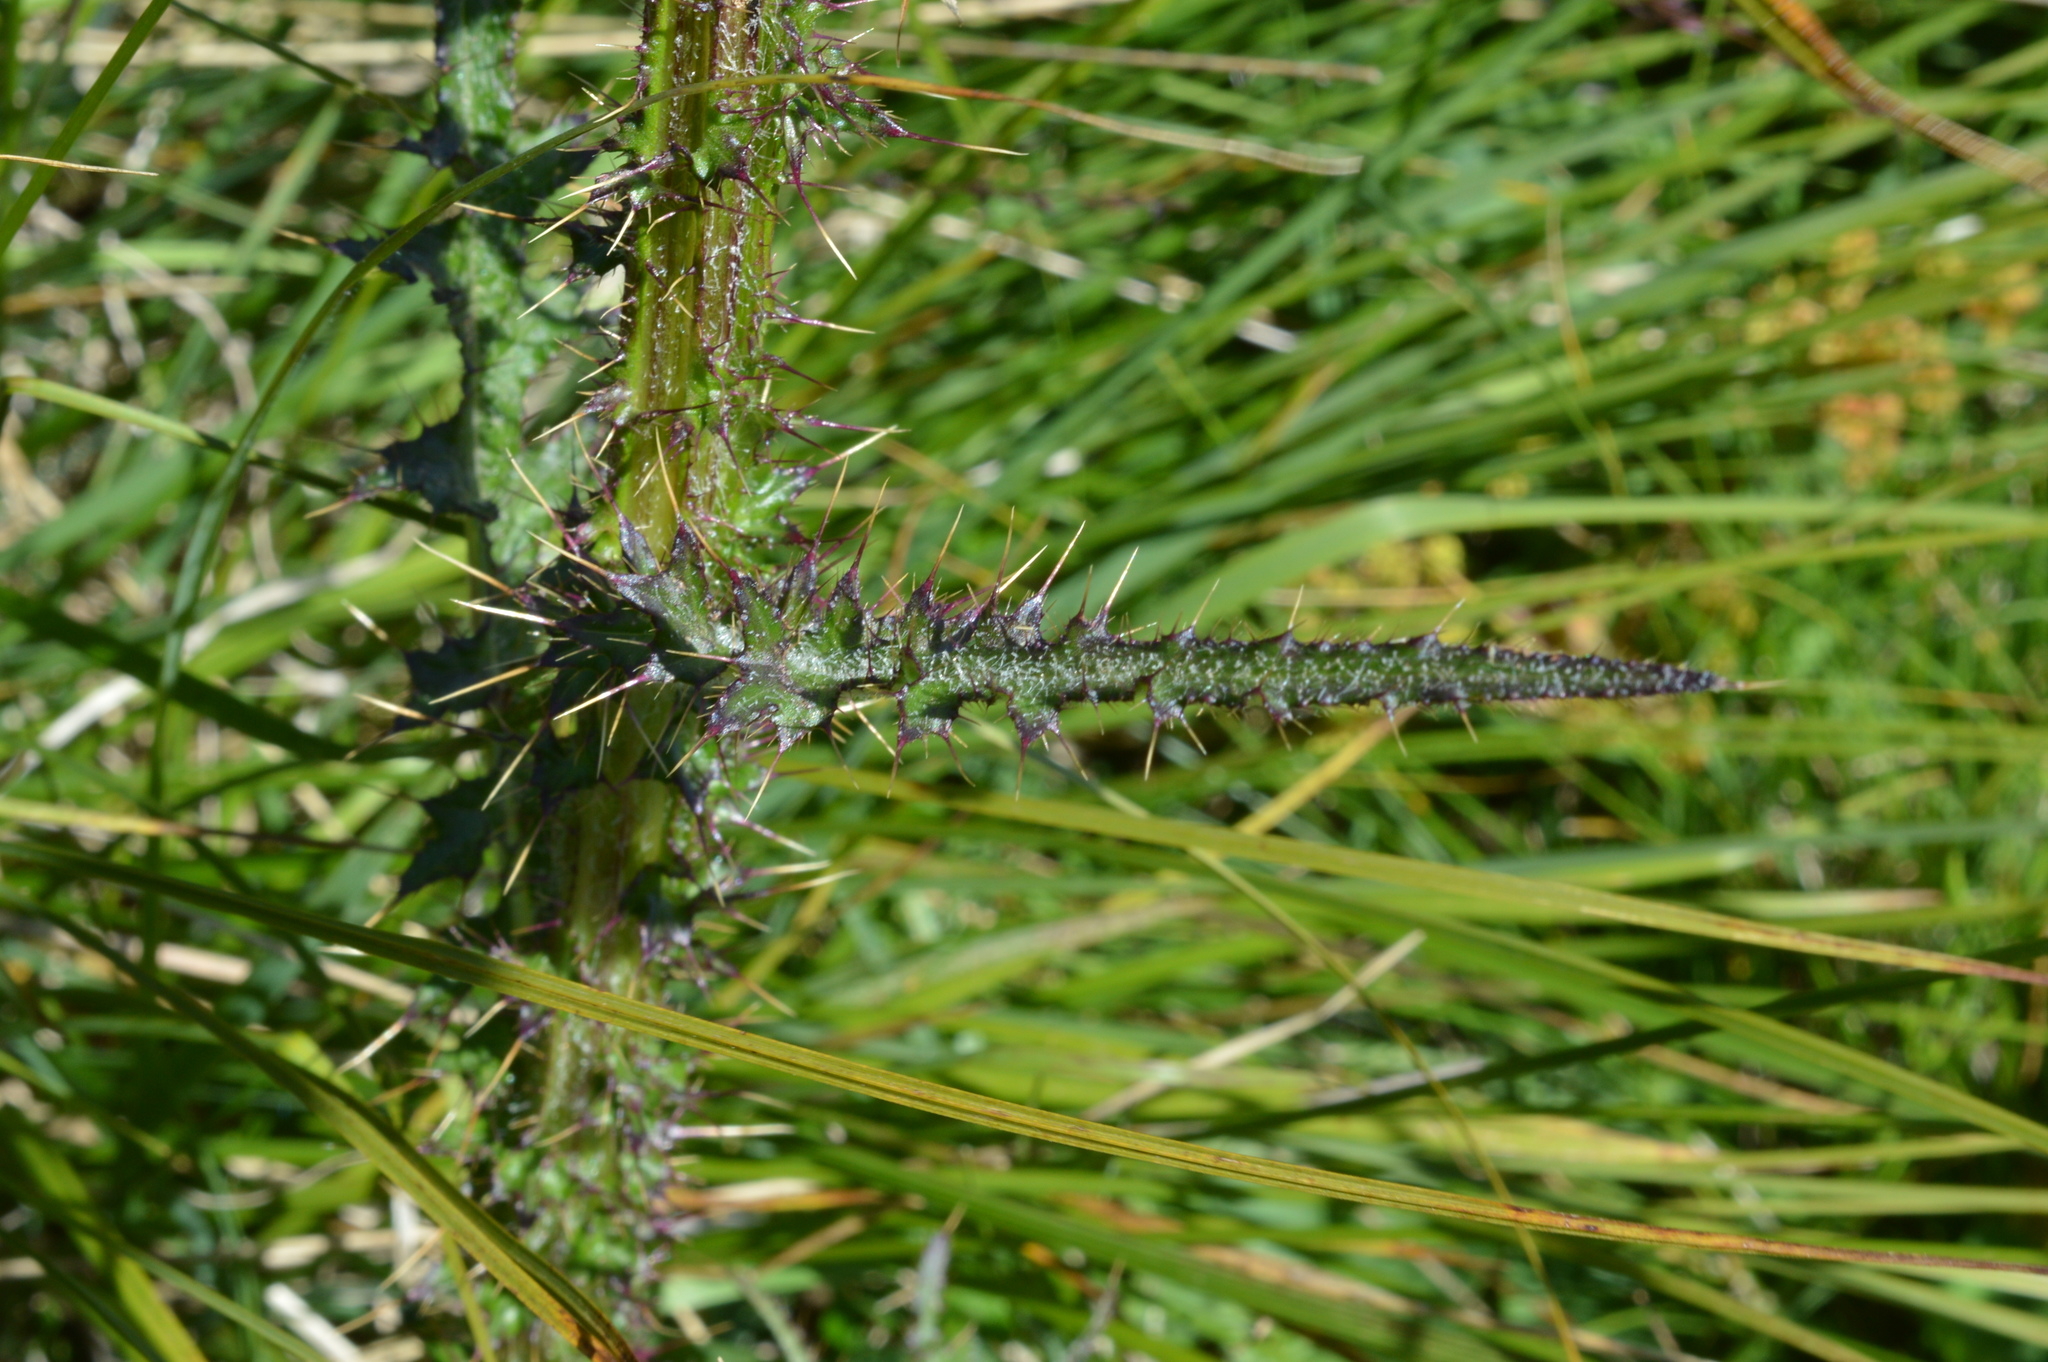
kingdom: Plantae
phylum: Tracheophyta
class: Magnoliopsida
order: Asterales
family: Asteraceae
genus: Cirsium
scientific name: Cirsium palustre
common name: Marsh thistle
